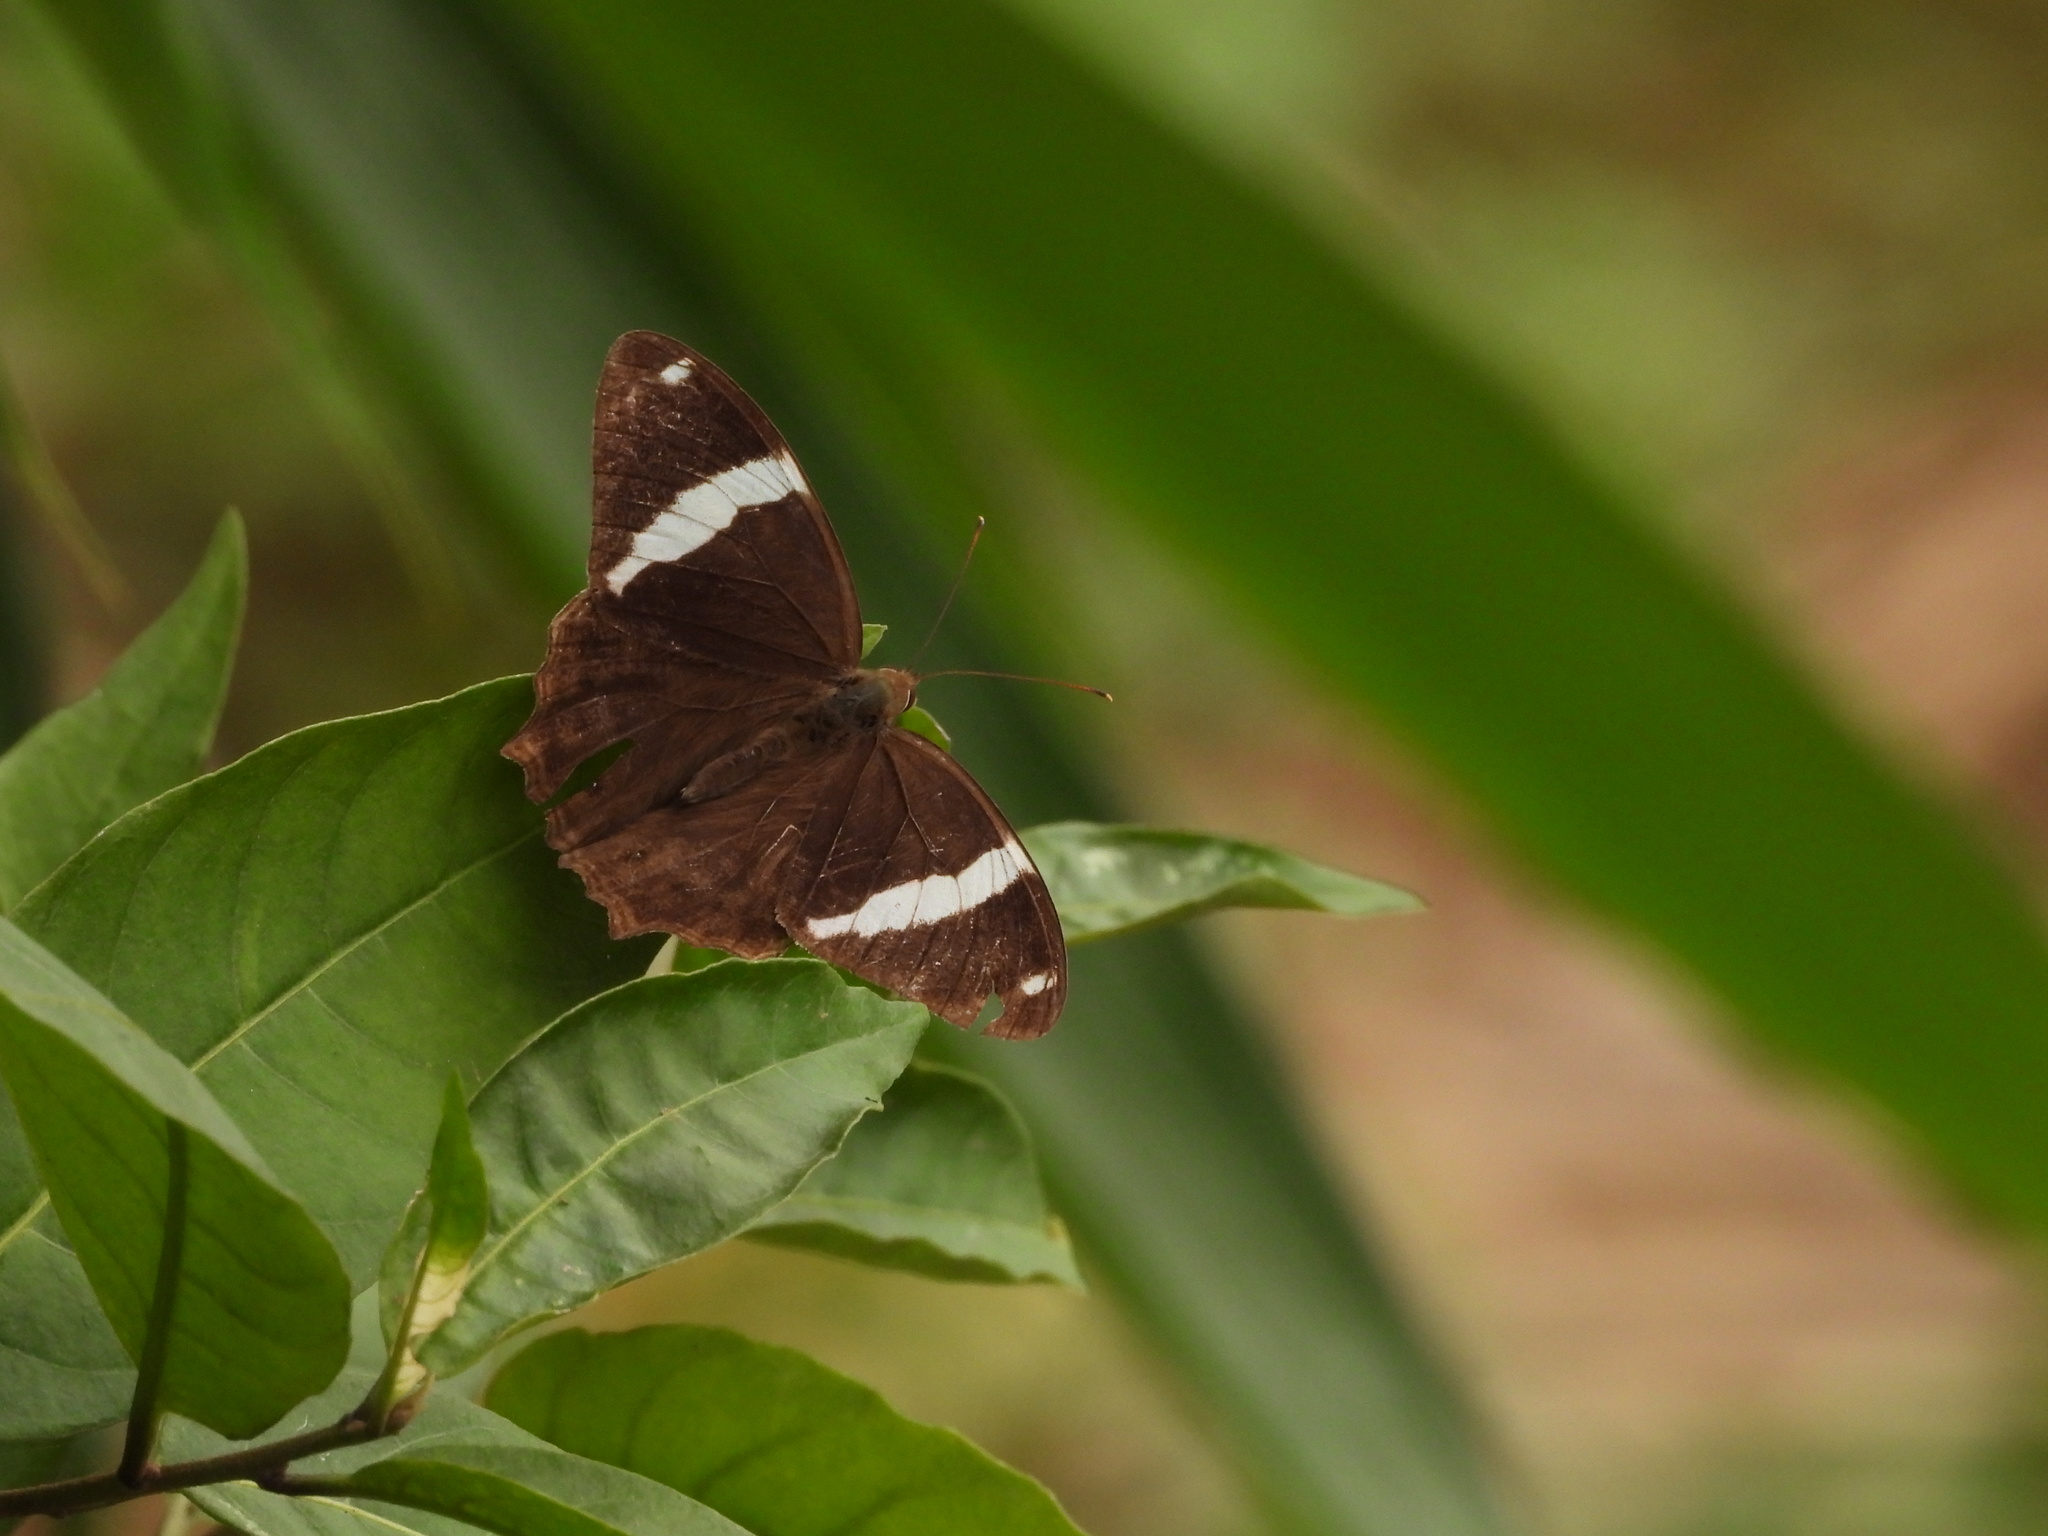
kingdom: Animalia
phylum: Arthropoda
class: Insecta
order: Lepidoptera
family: Nymphalidae
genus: Lethe
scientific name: Lethe confusa
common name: Banded treebrown
